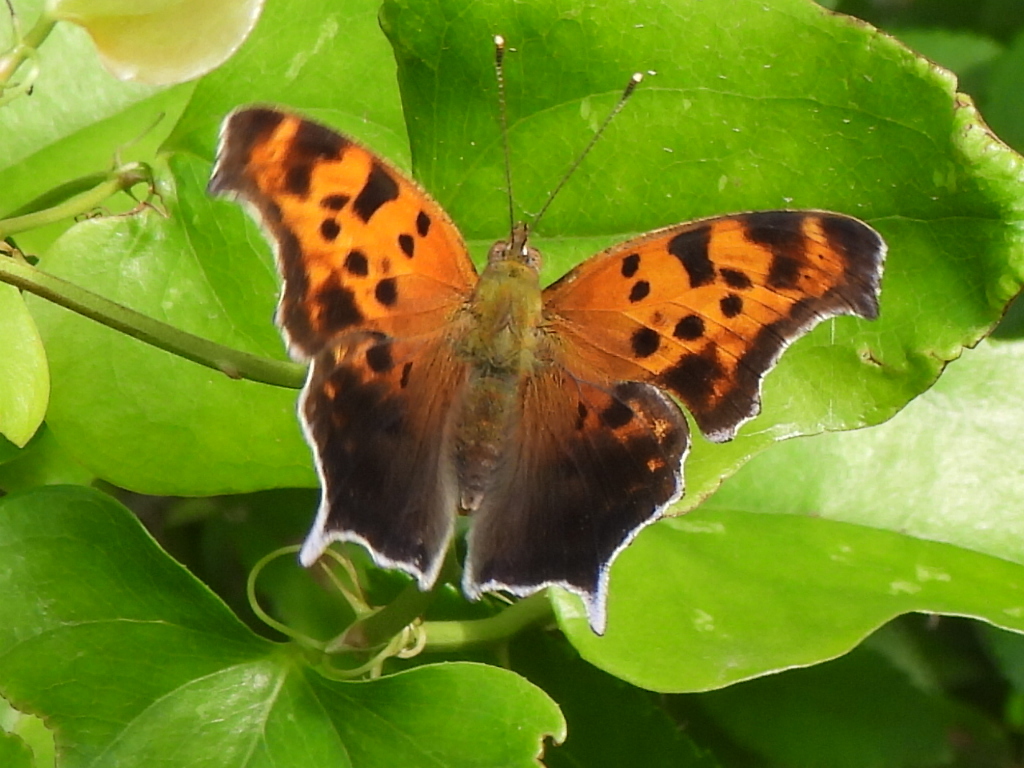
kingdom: Animalia
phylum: Arthropoda
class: Insecta
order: Lepidoptera
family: Nymphalidae
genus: Polygonia
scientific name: Polygonia interrogationis
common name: Question mark
